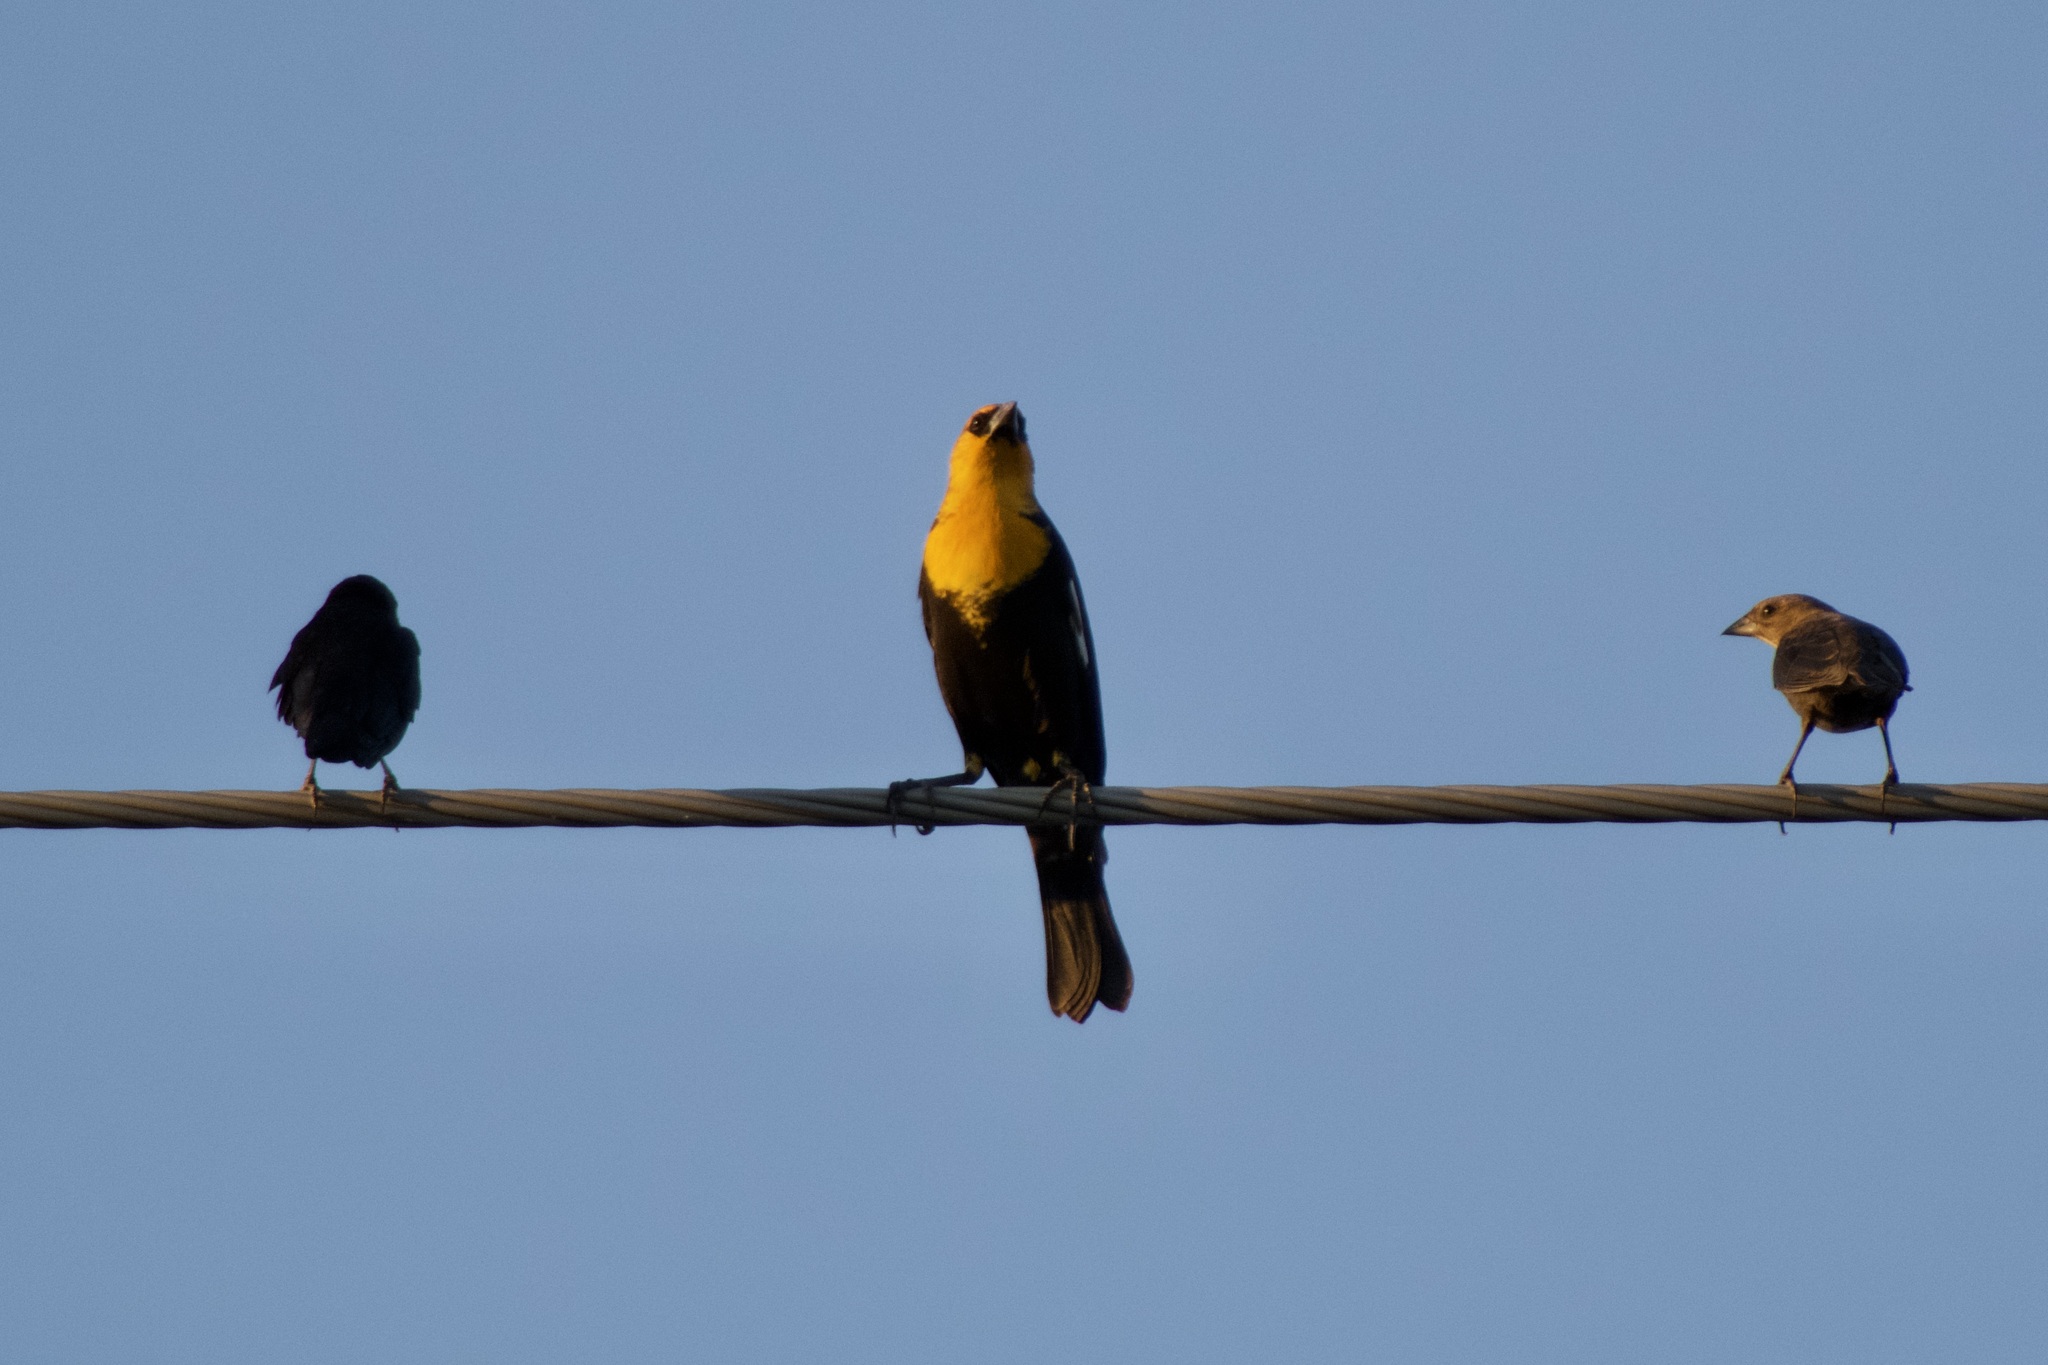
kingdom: Animalia
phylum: Chordata
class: Aves
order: Passeriformes
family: Icteridae
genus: Xanthocephalus
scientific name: Xanthocephalus xanthocephalus
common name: Yellow-headed blackbird
